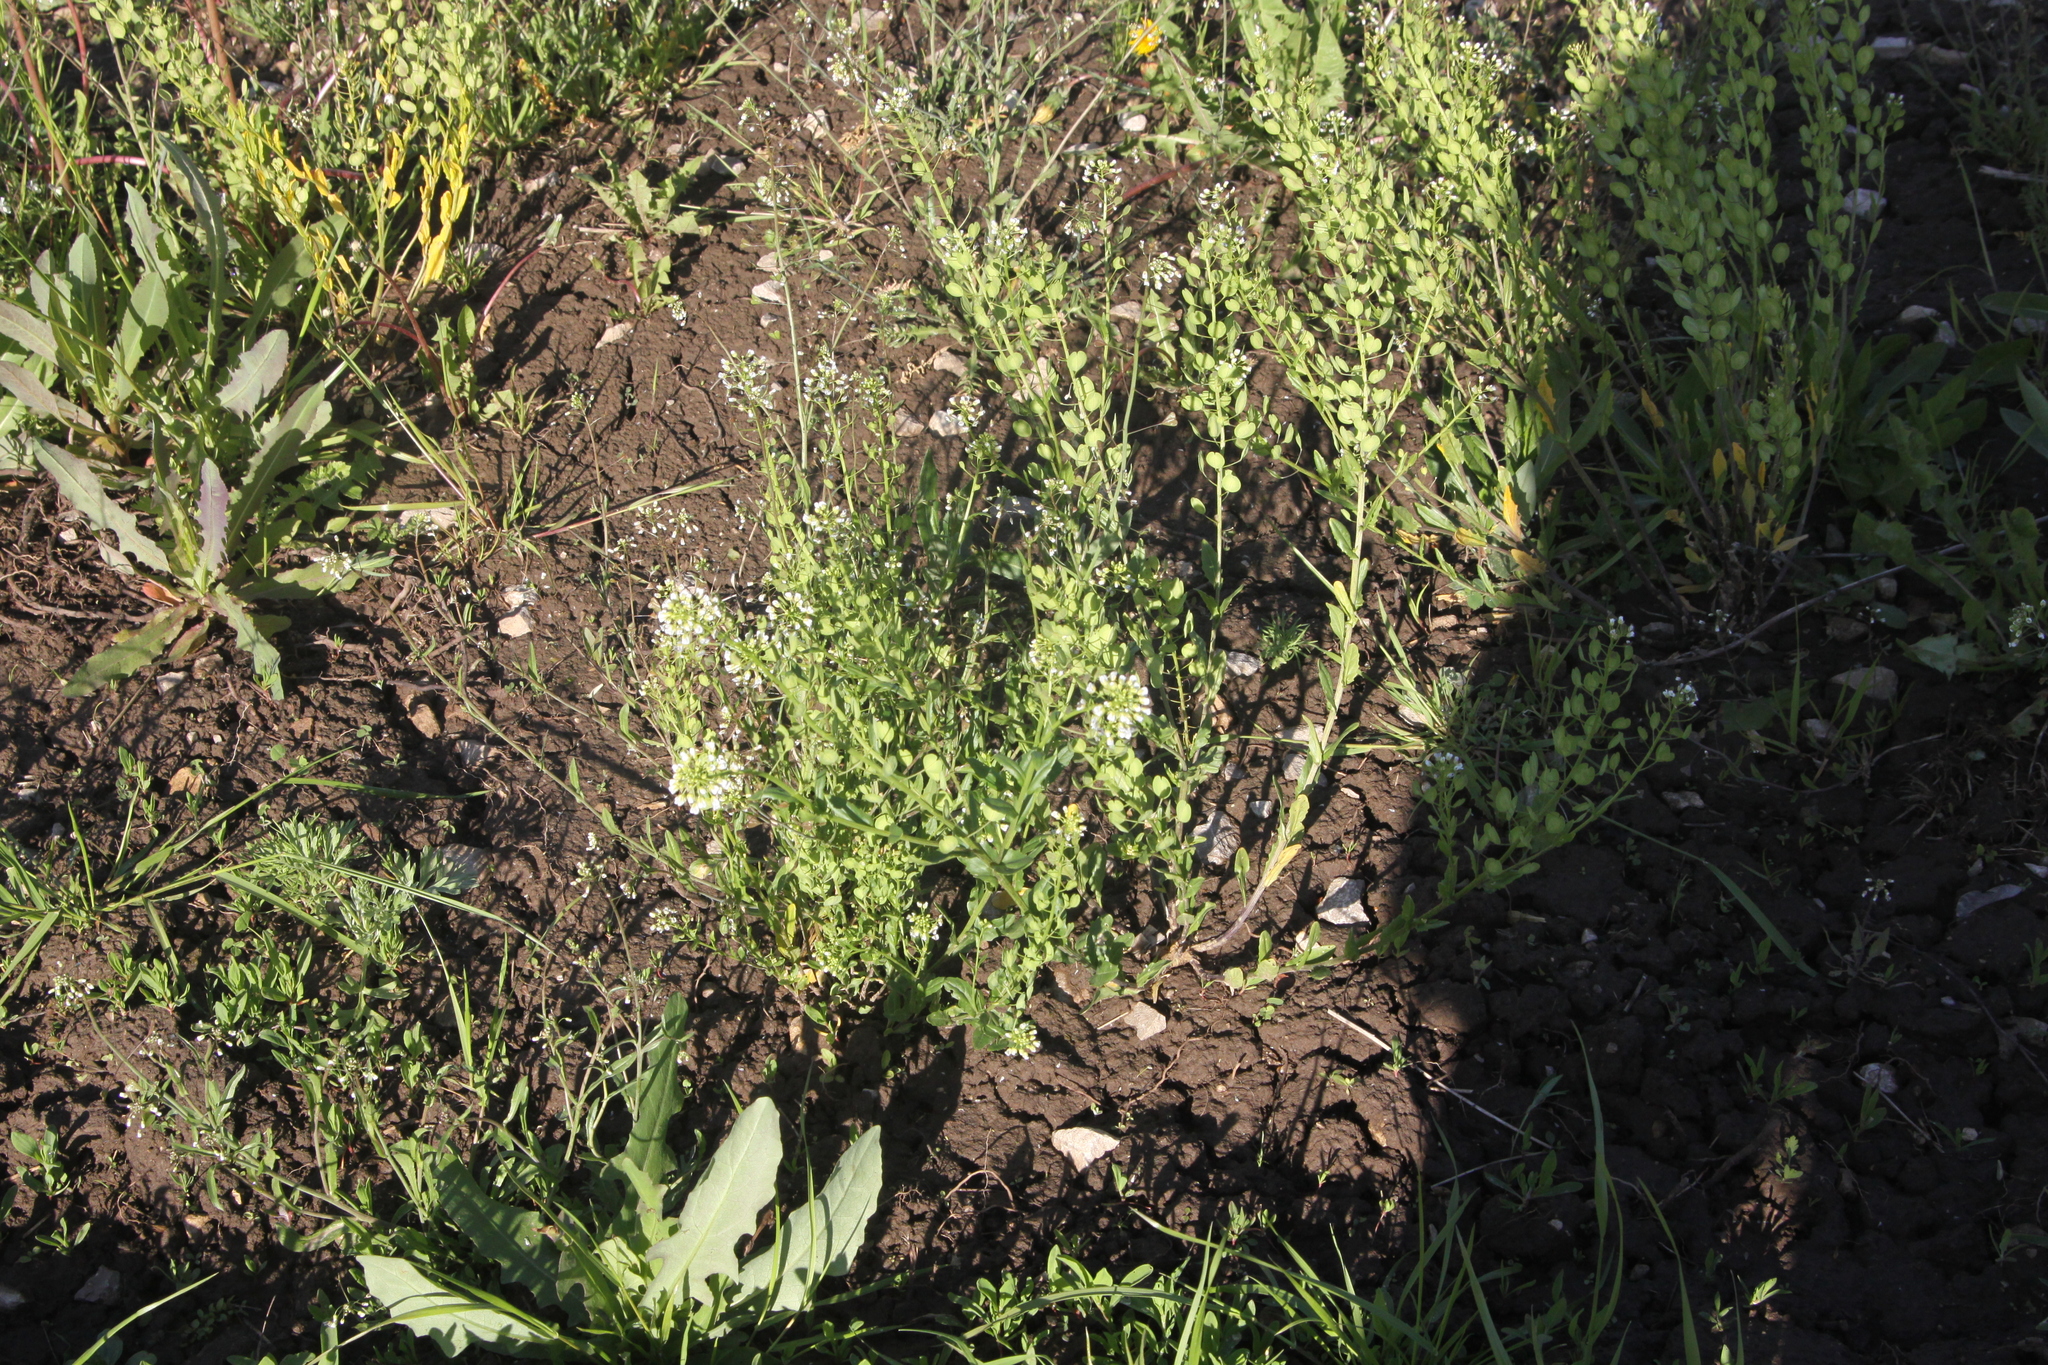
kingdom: Plantae
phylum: Tracheophyta
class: Magnoliopsida
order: Brassicales
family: Brassicaceae
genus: Thlaspi
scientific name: Thlaspi arvense
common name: Field pennycress
